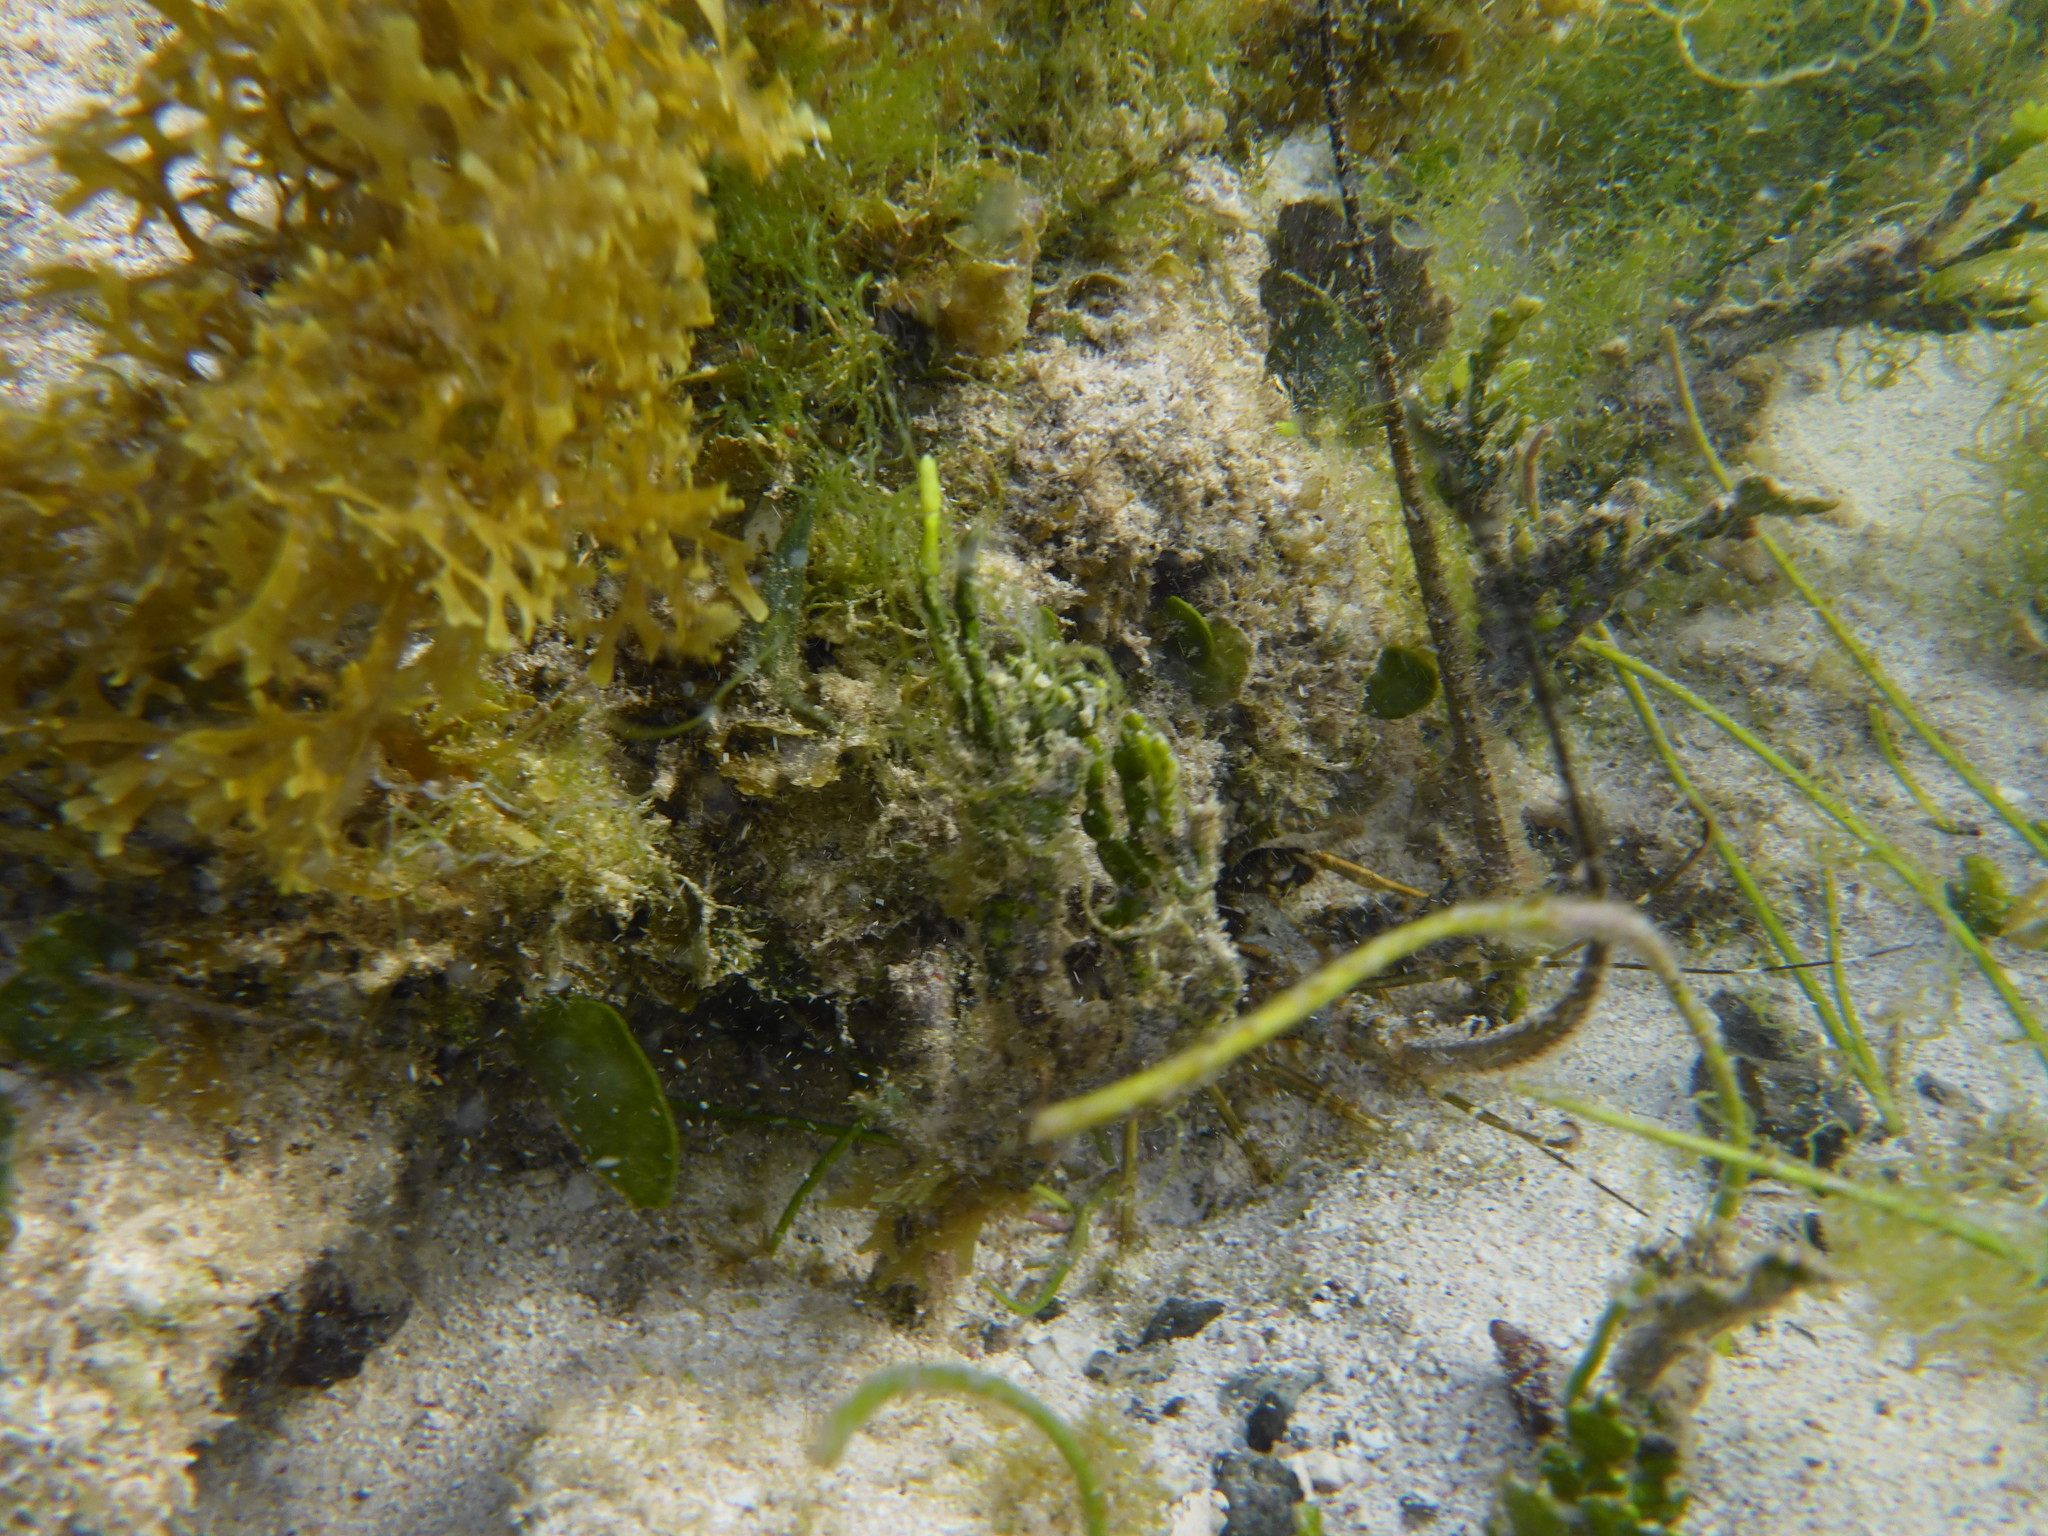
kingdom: Animalia
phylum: Arthropoda
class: Malacostraca
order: Decapoda
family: Palinuridae
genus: Panulirus
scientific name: Panulirus argus
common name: Caribbean spiny lobster
